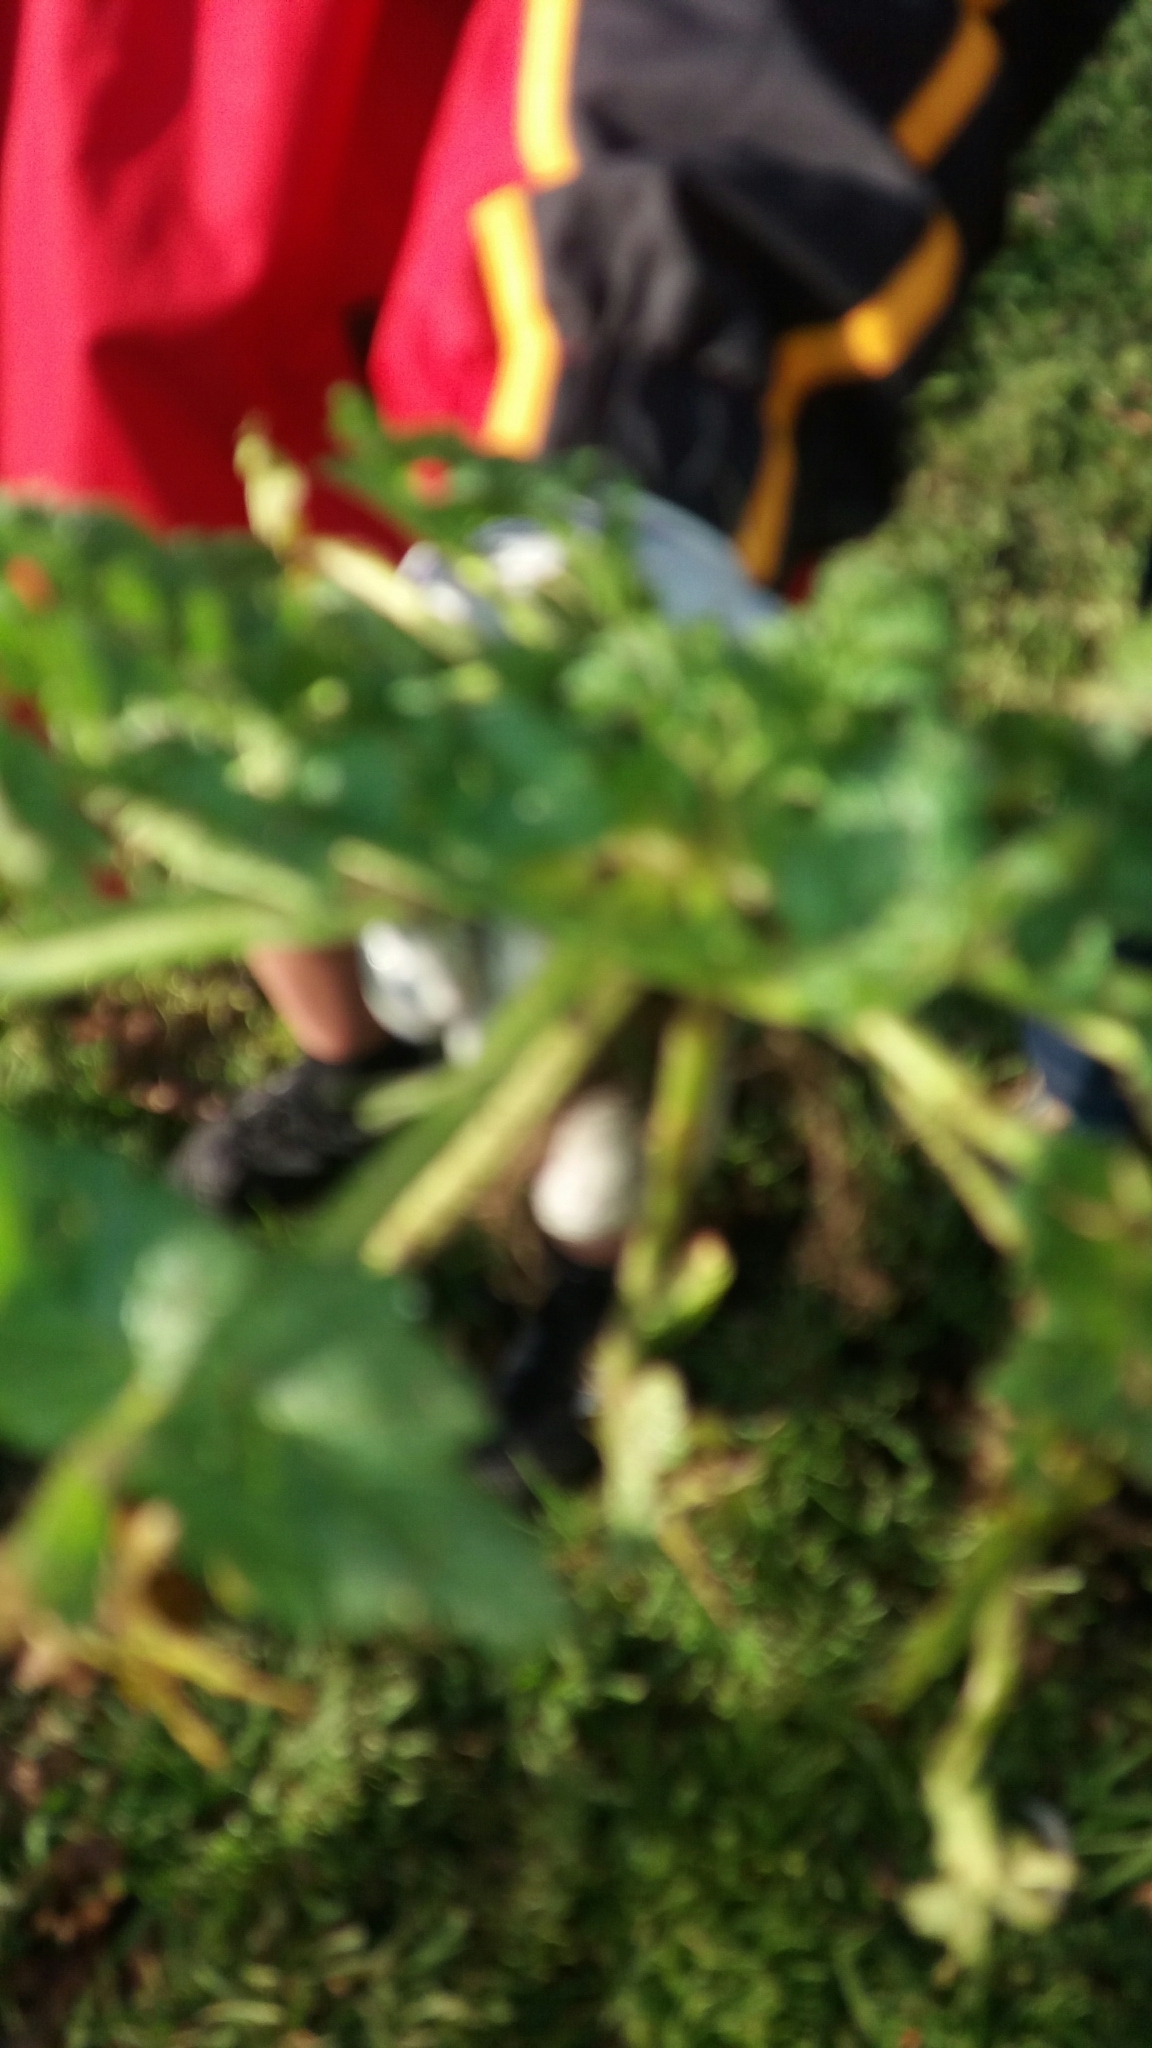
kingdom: Plantae
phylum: Tracheophyta
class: Magnoliopsida
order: Geraniales
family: Geraniaceae
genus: Erodium
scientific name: Erodium cicutarium
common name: Common stork's-bill
